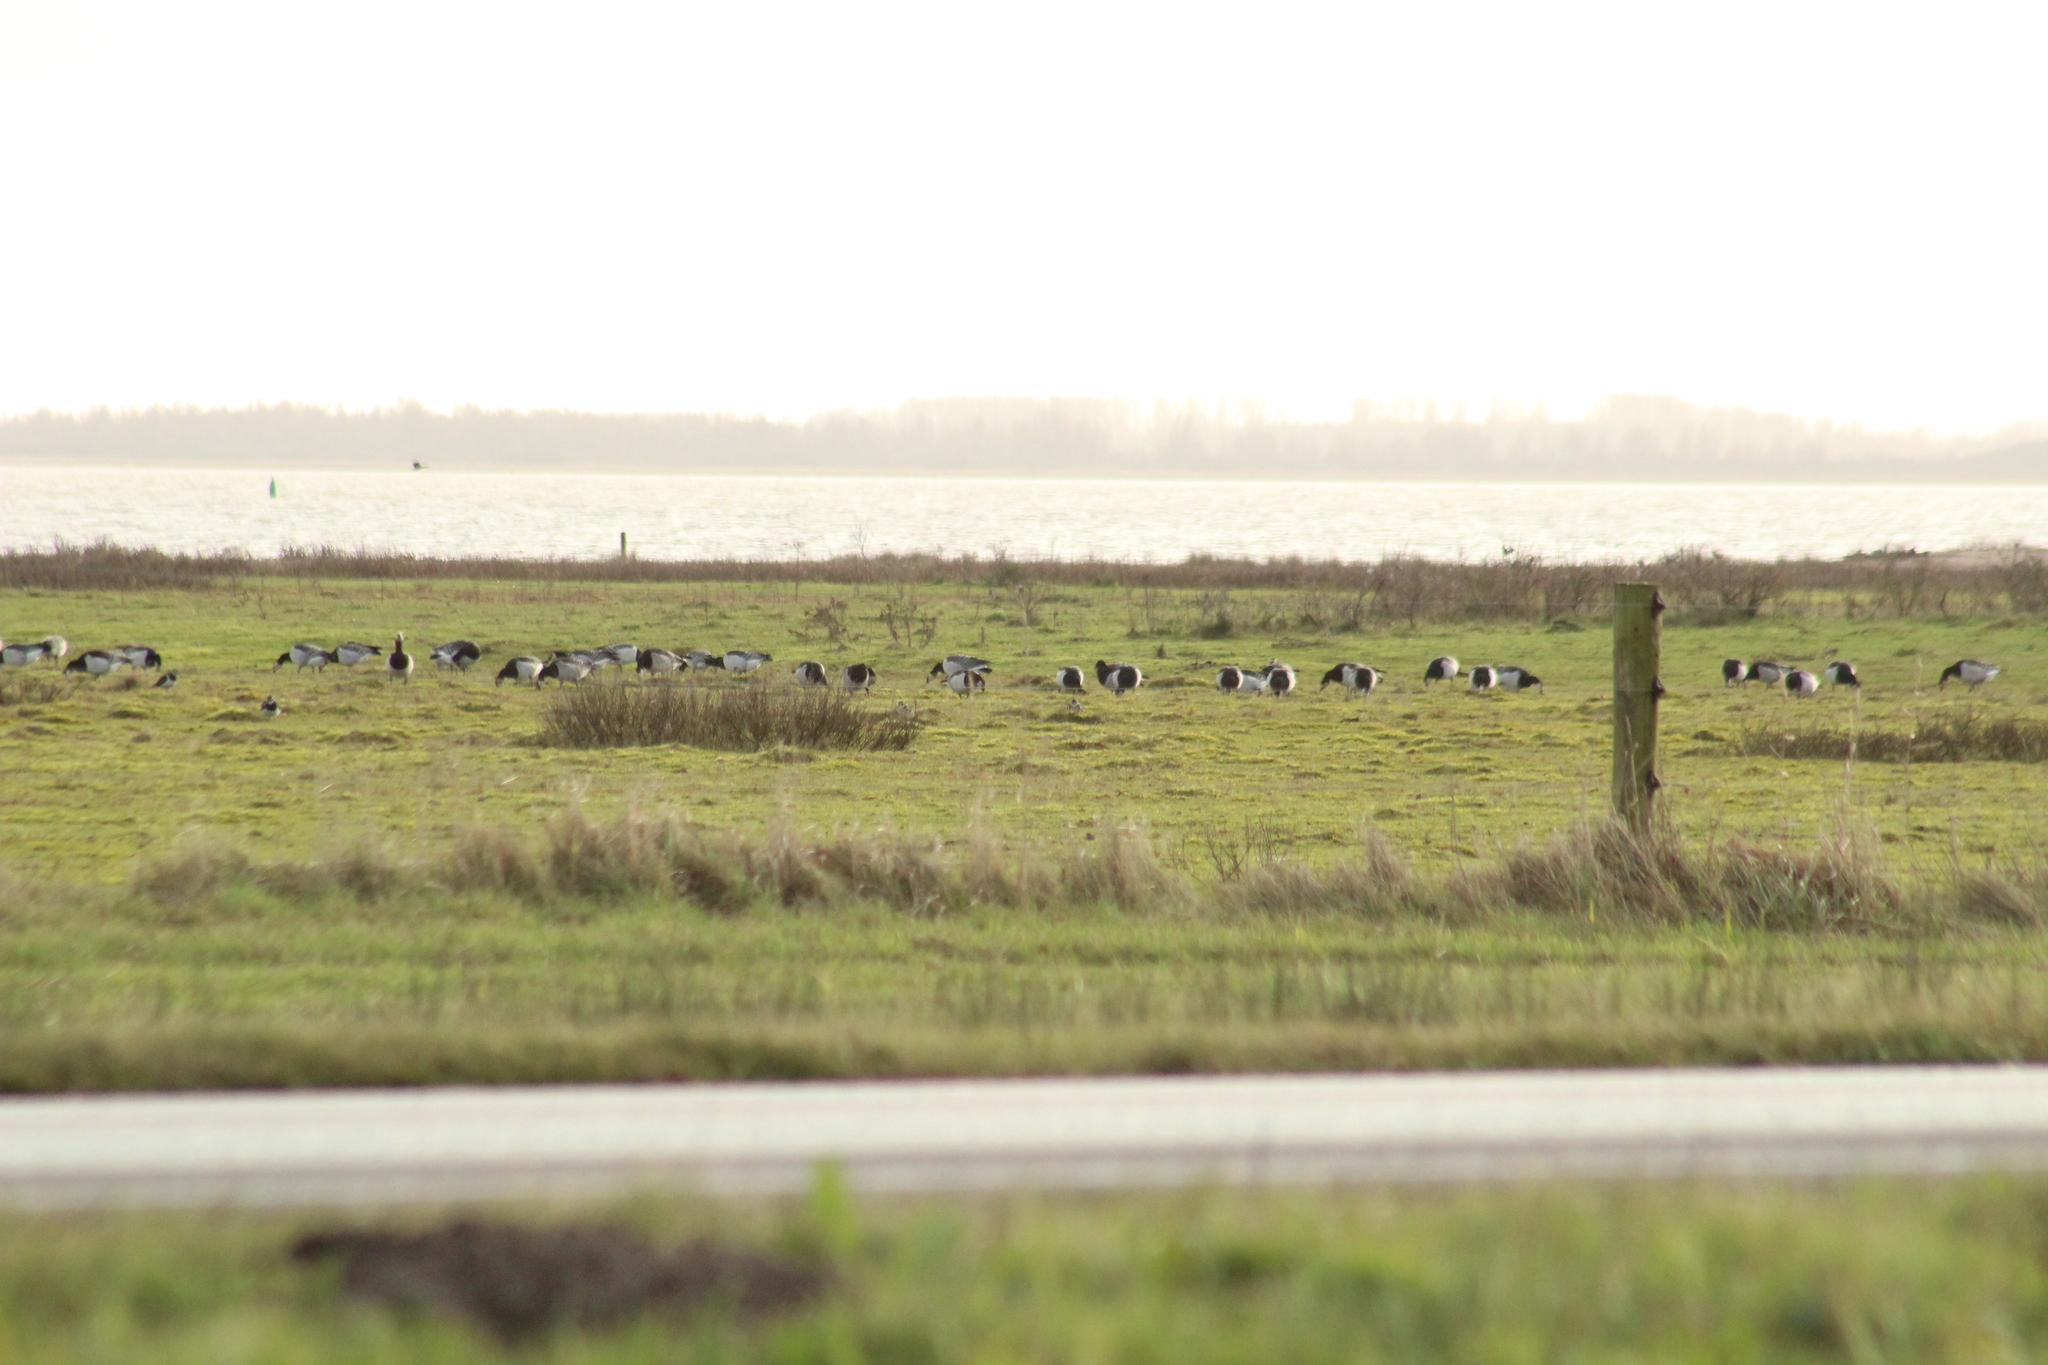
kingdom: Animalia
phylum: Chordata
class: Aves
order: Anseriformes
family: Anatidae
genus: Branta
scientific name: Branta leucopsis
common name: Barnacle goose
